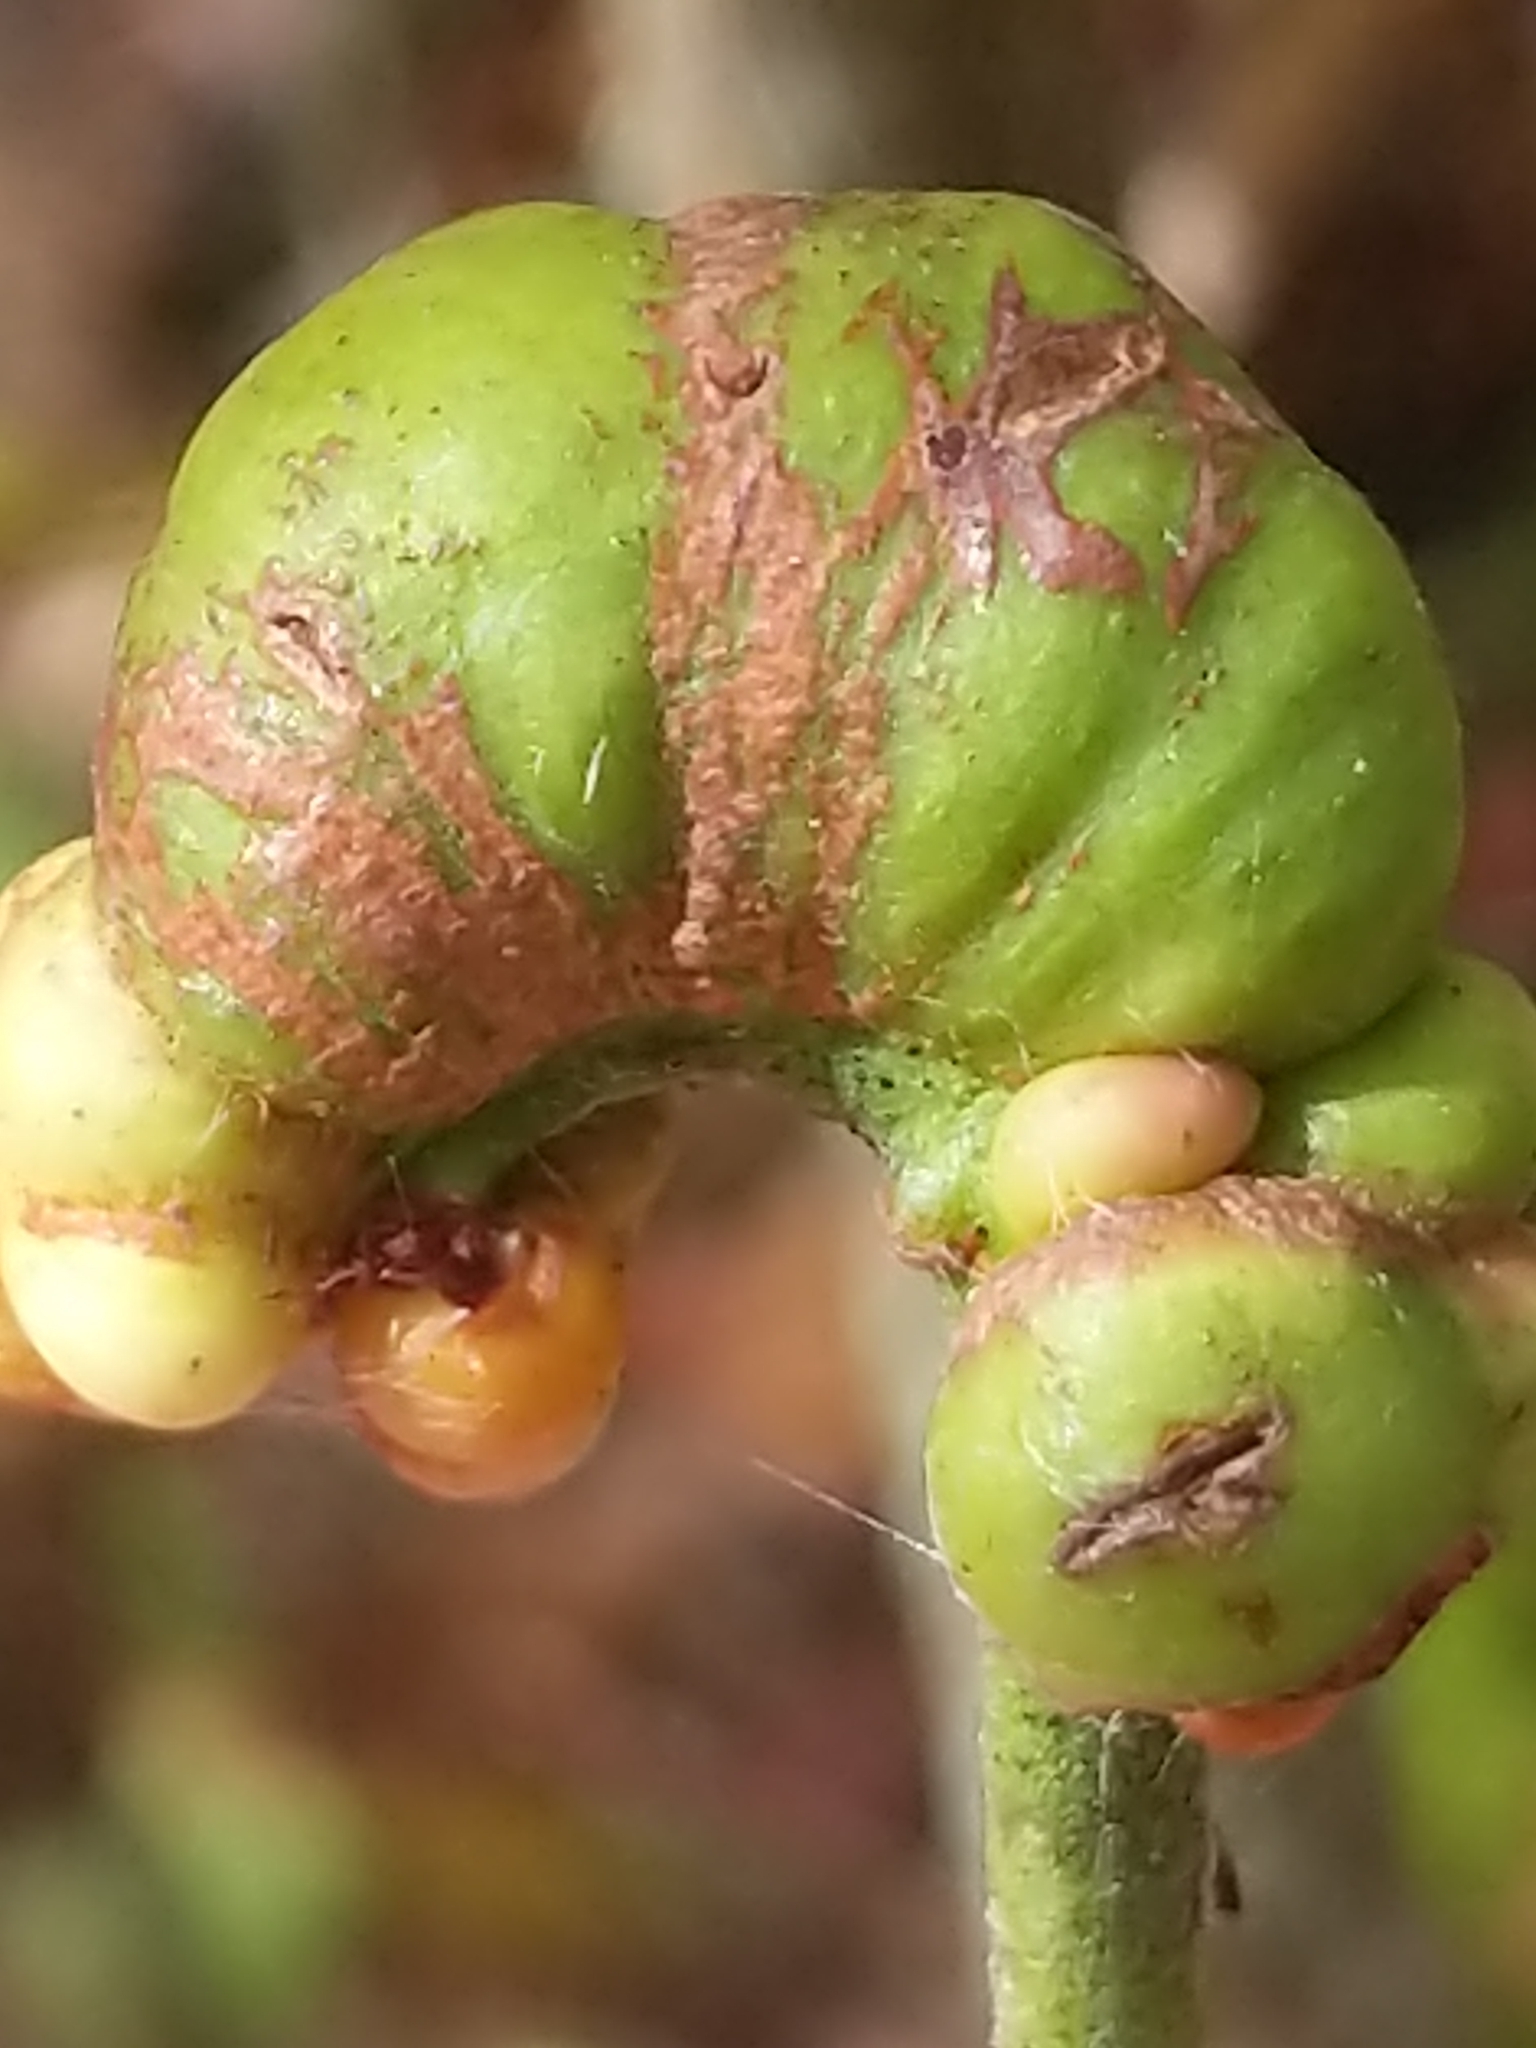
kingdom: Animalia
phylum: Arthropoda
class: Insecta
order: Hymenoptera
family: Pteromalidae
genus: Hemadas
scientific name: Hemadas nubilipennis
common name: Blueberry stem gall wasp
